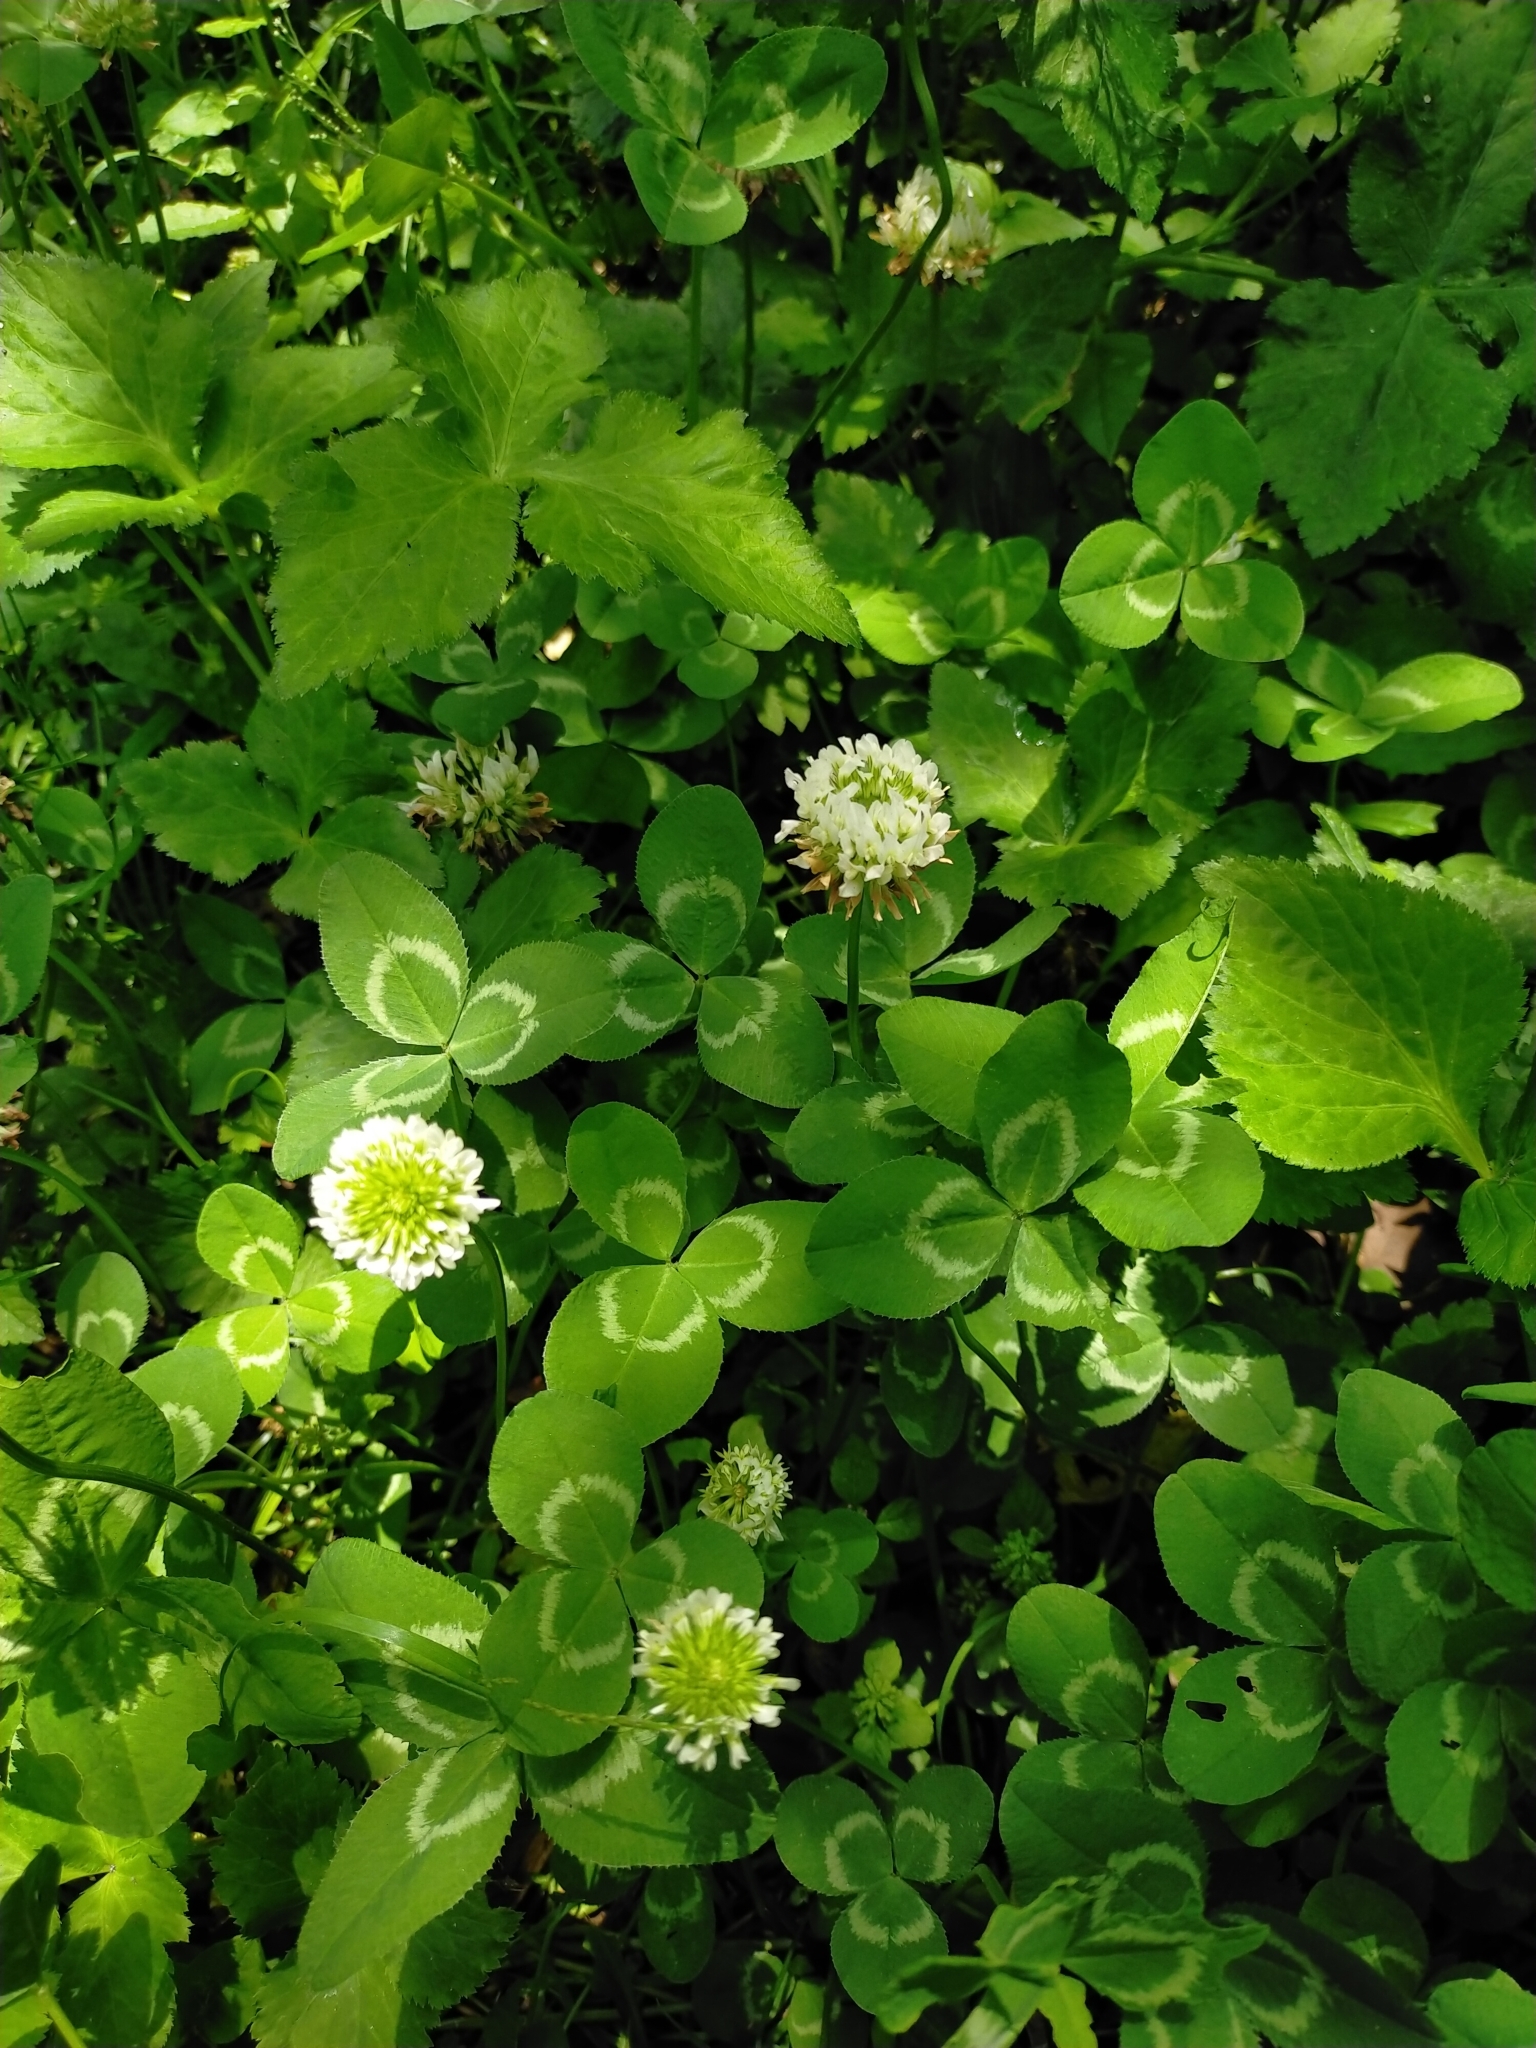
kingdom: Plantae
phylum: Tracheophyta
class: Magnoliopsida
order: Fabales
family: Fabaceae
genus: Trifolium
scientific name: Trifolium repens
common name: White clover
